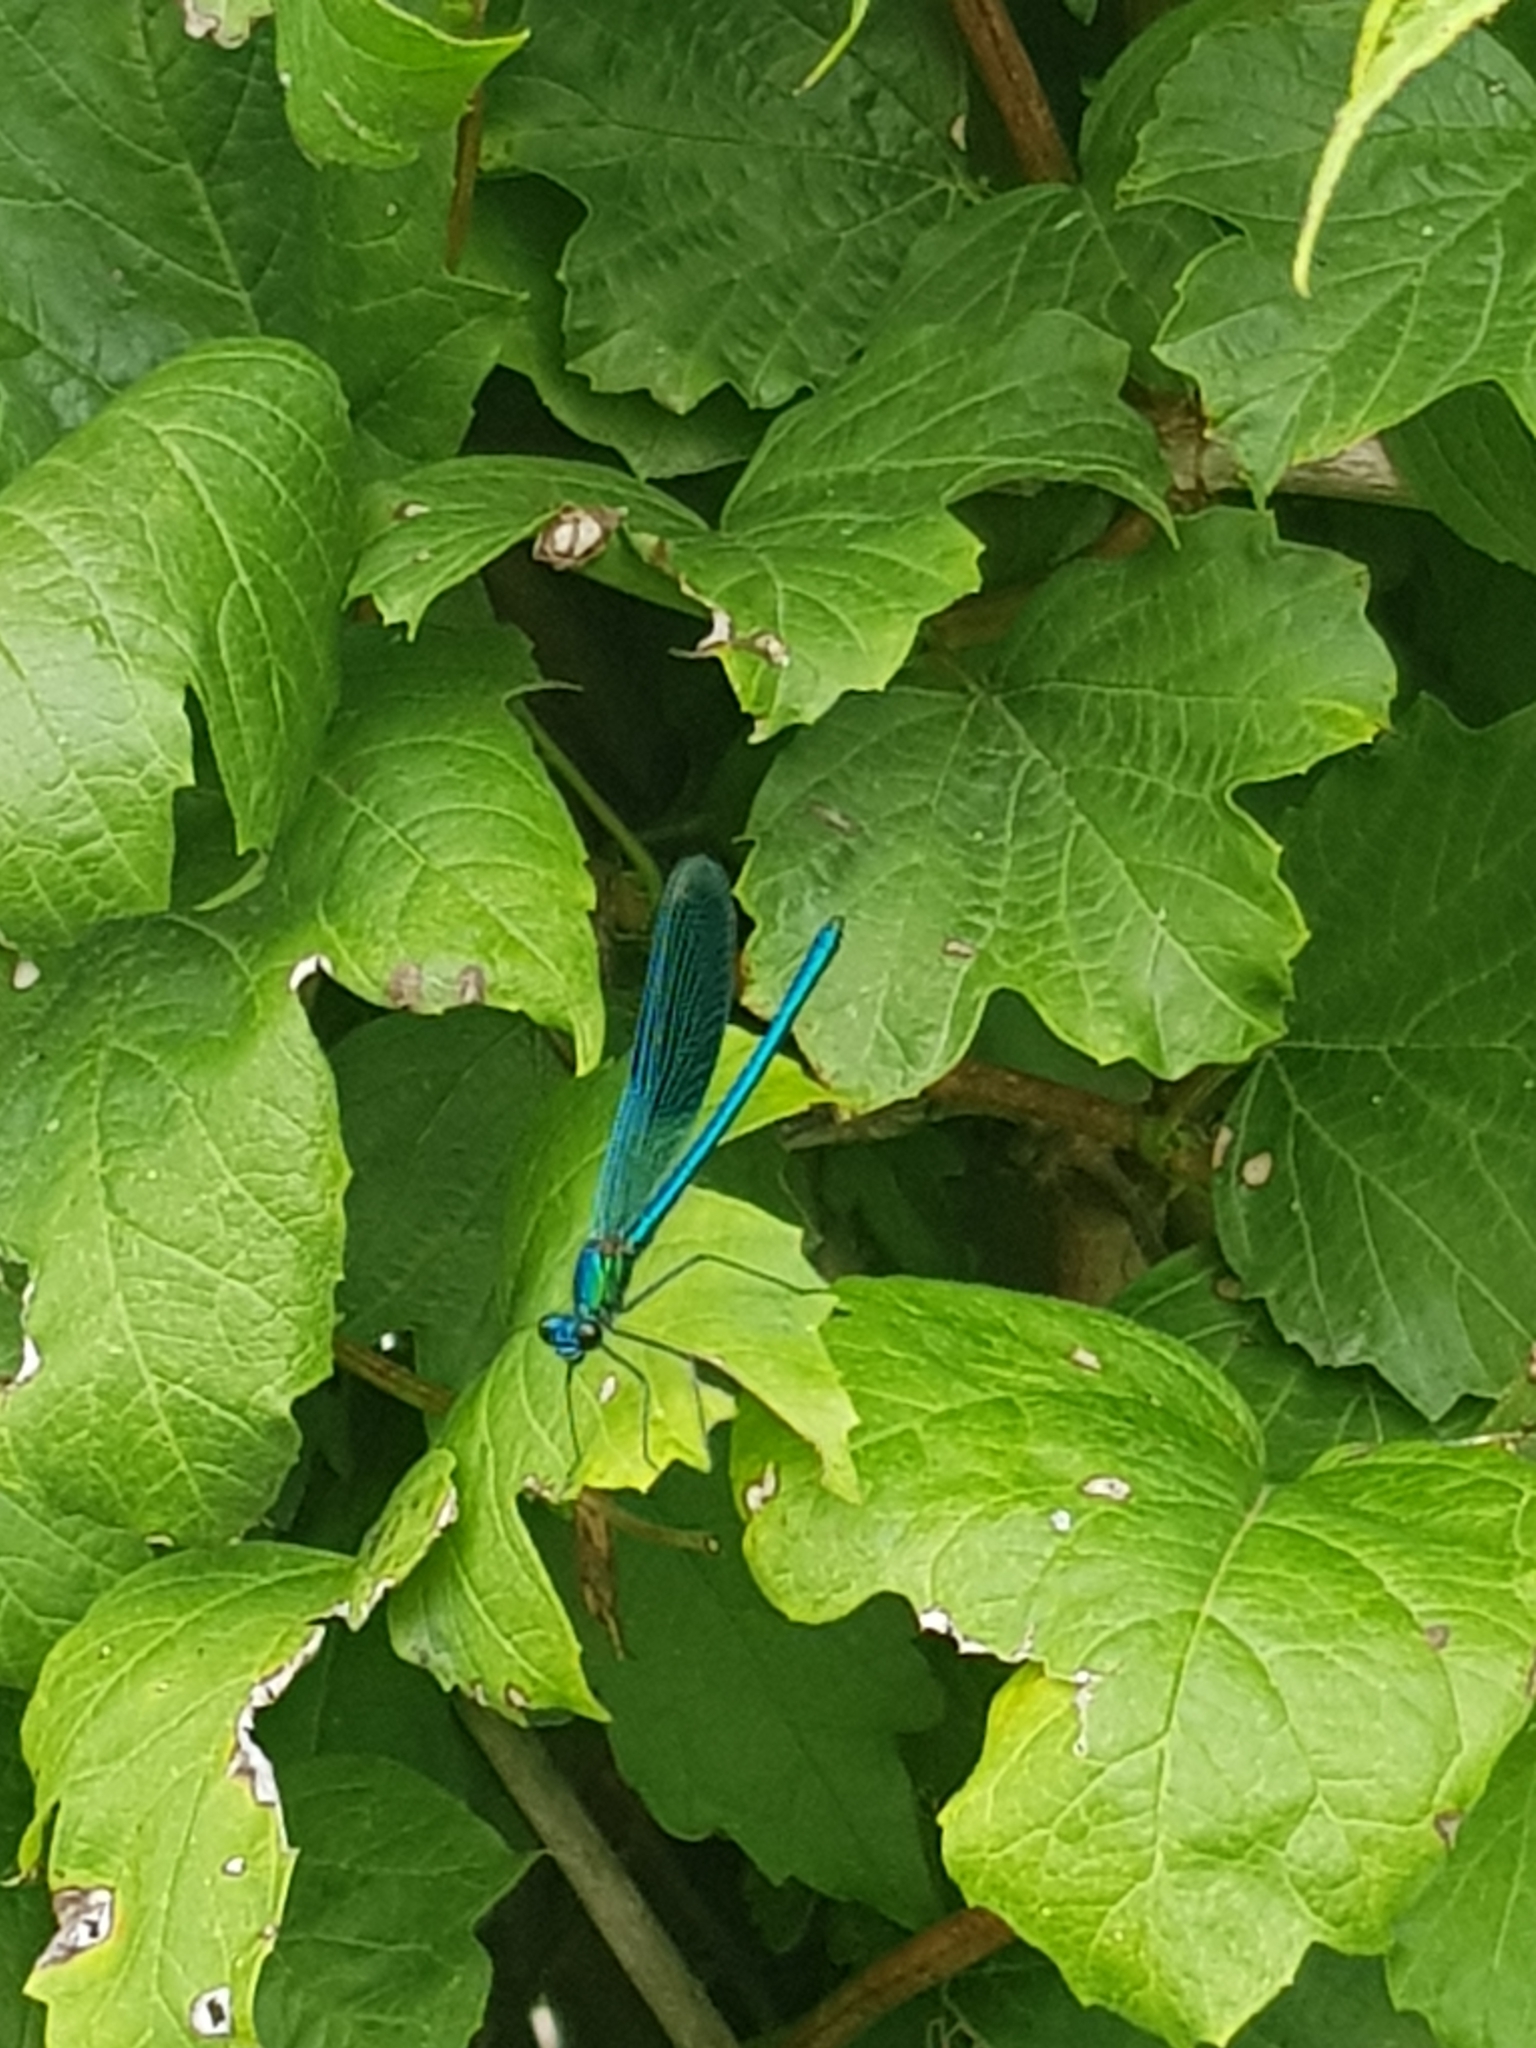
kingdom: Animalia
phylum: Arthropoda
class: Insecta
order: Odonata
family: Calopterygidae
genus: Calopteryx
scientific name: Calopteryx splendens
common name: Banded demoiselle
